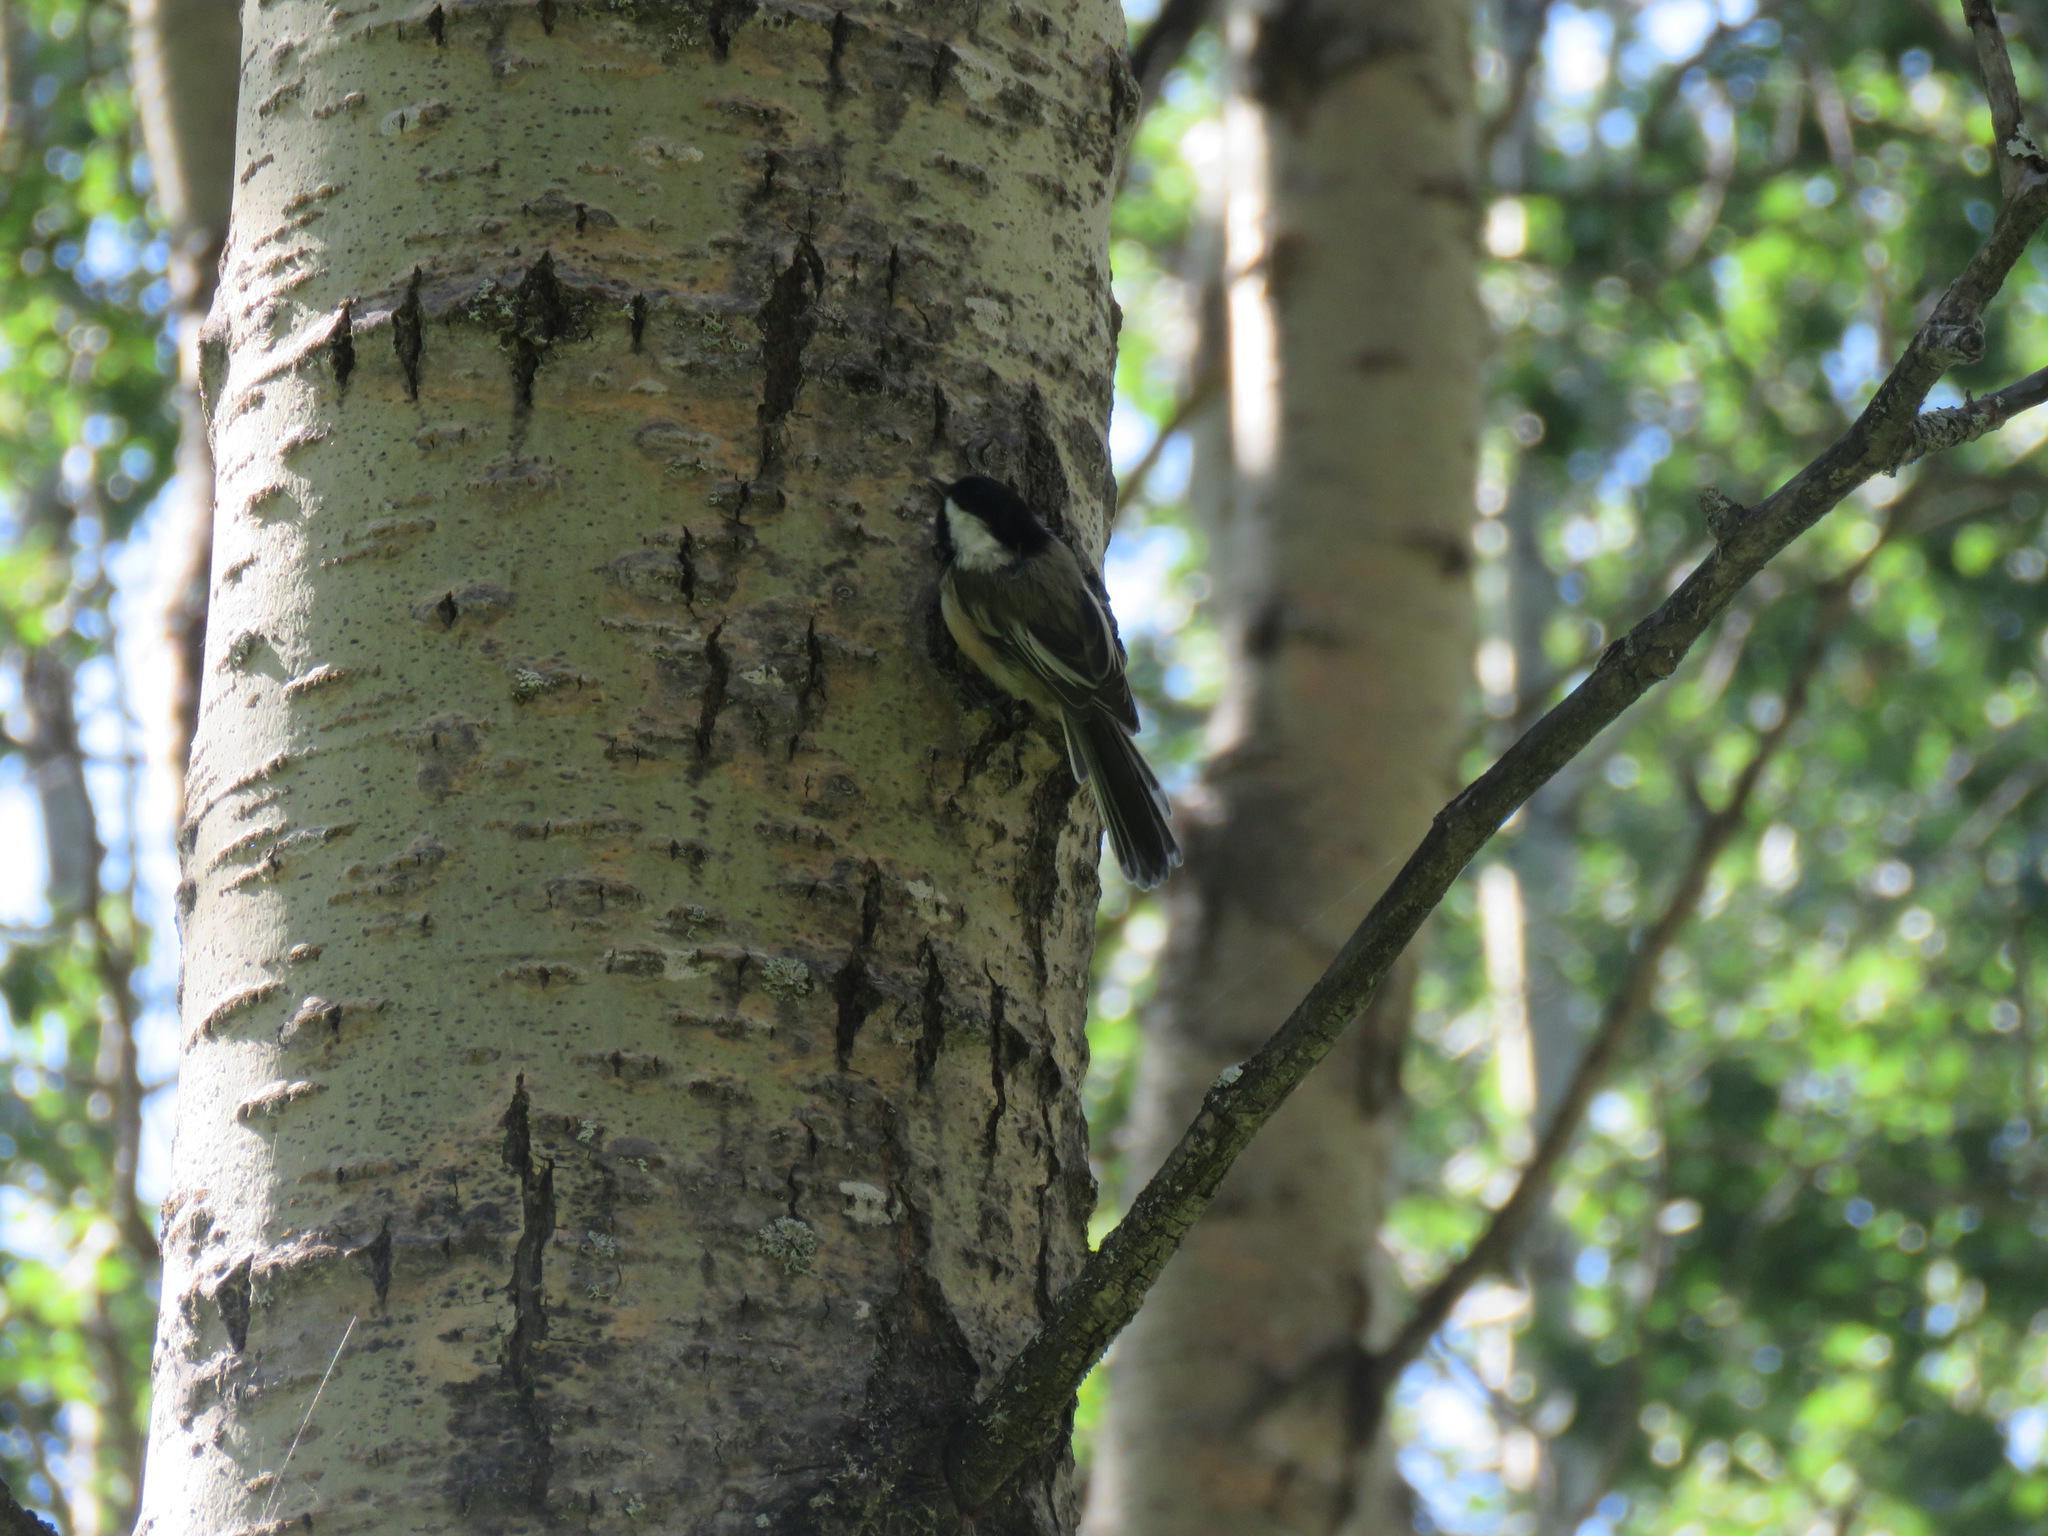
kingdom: Animalia
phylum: Chordata
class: Aves
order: Passeriformes
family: Paridae
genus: Poecile
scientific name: Poecile atricapillus
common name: Black-capped chickadee
